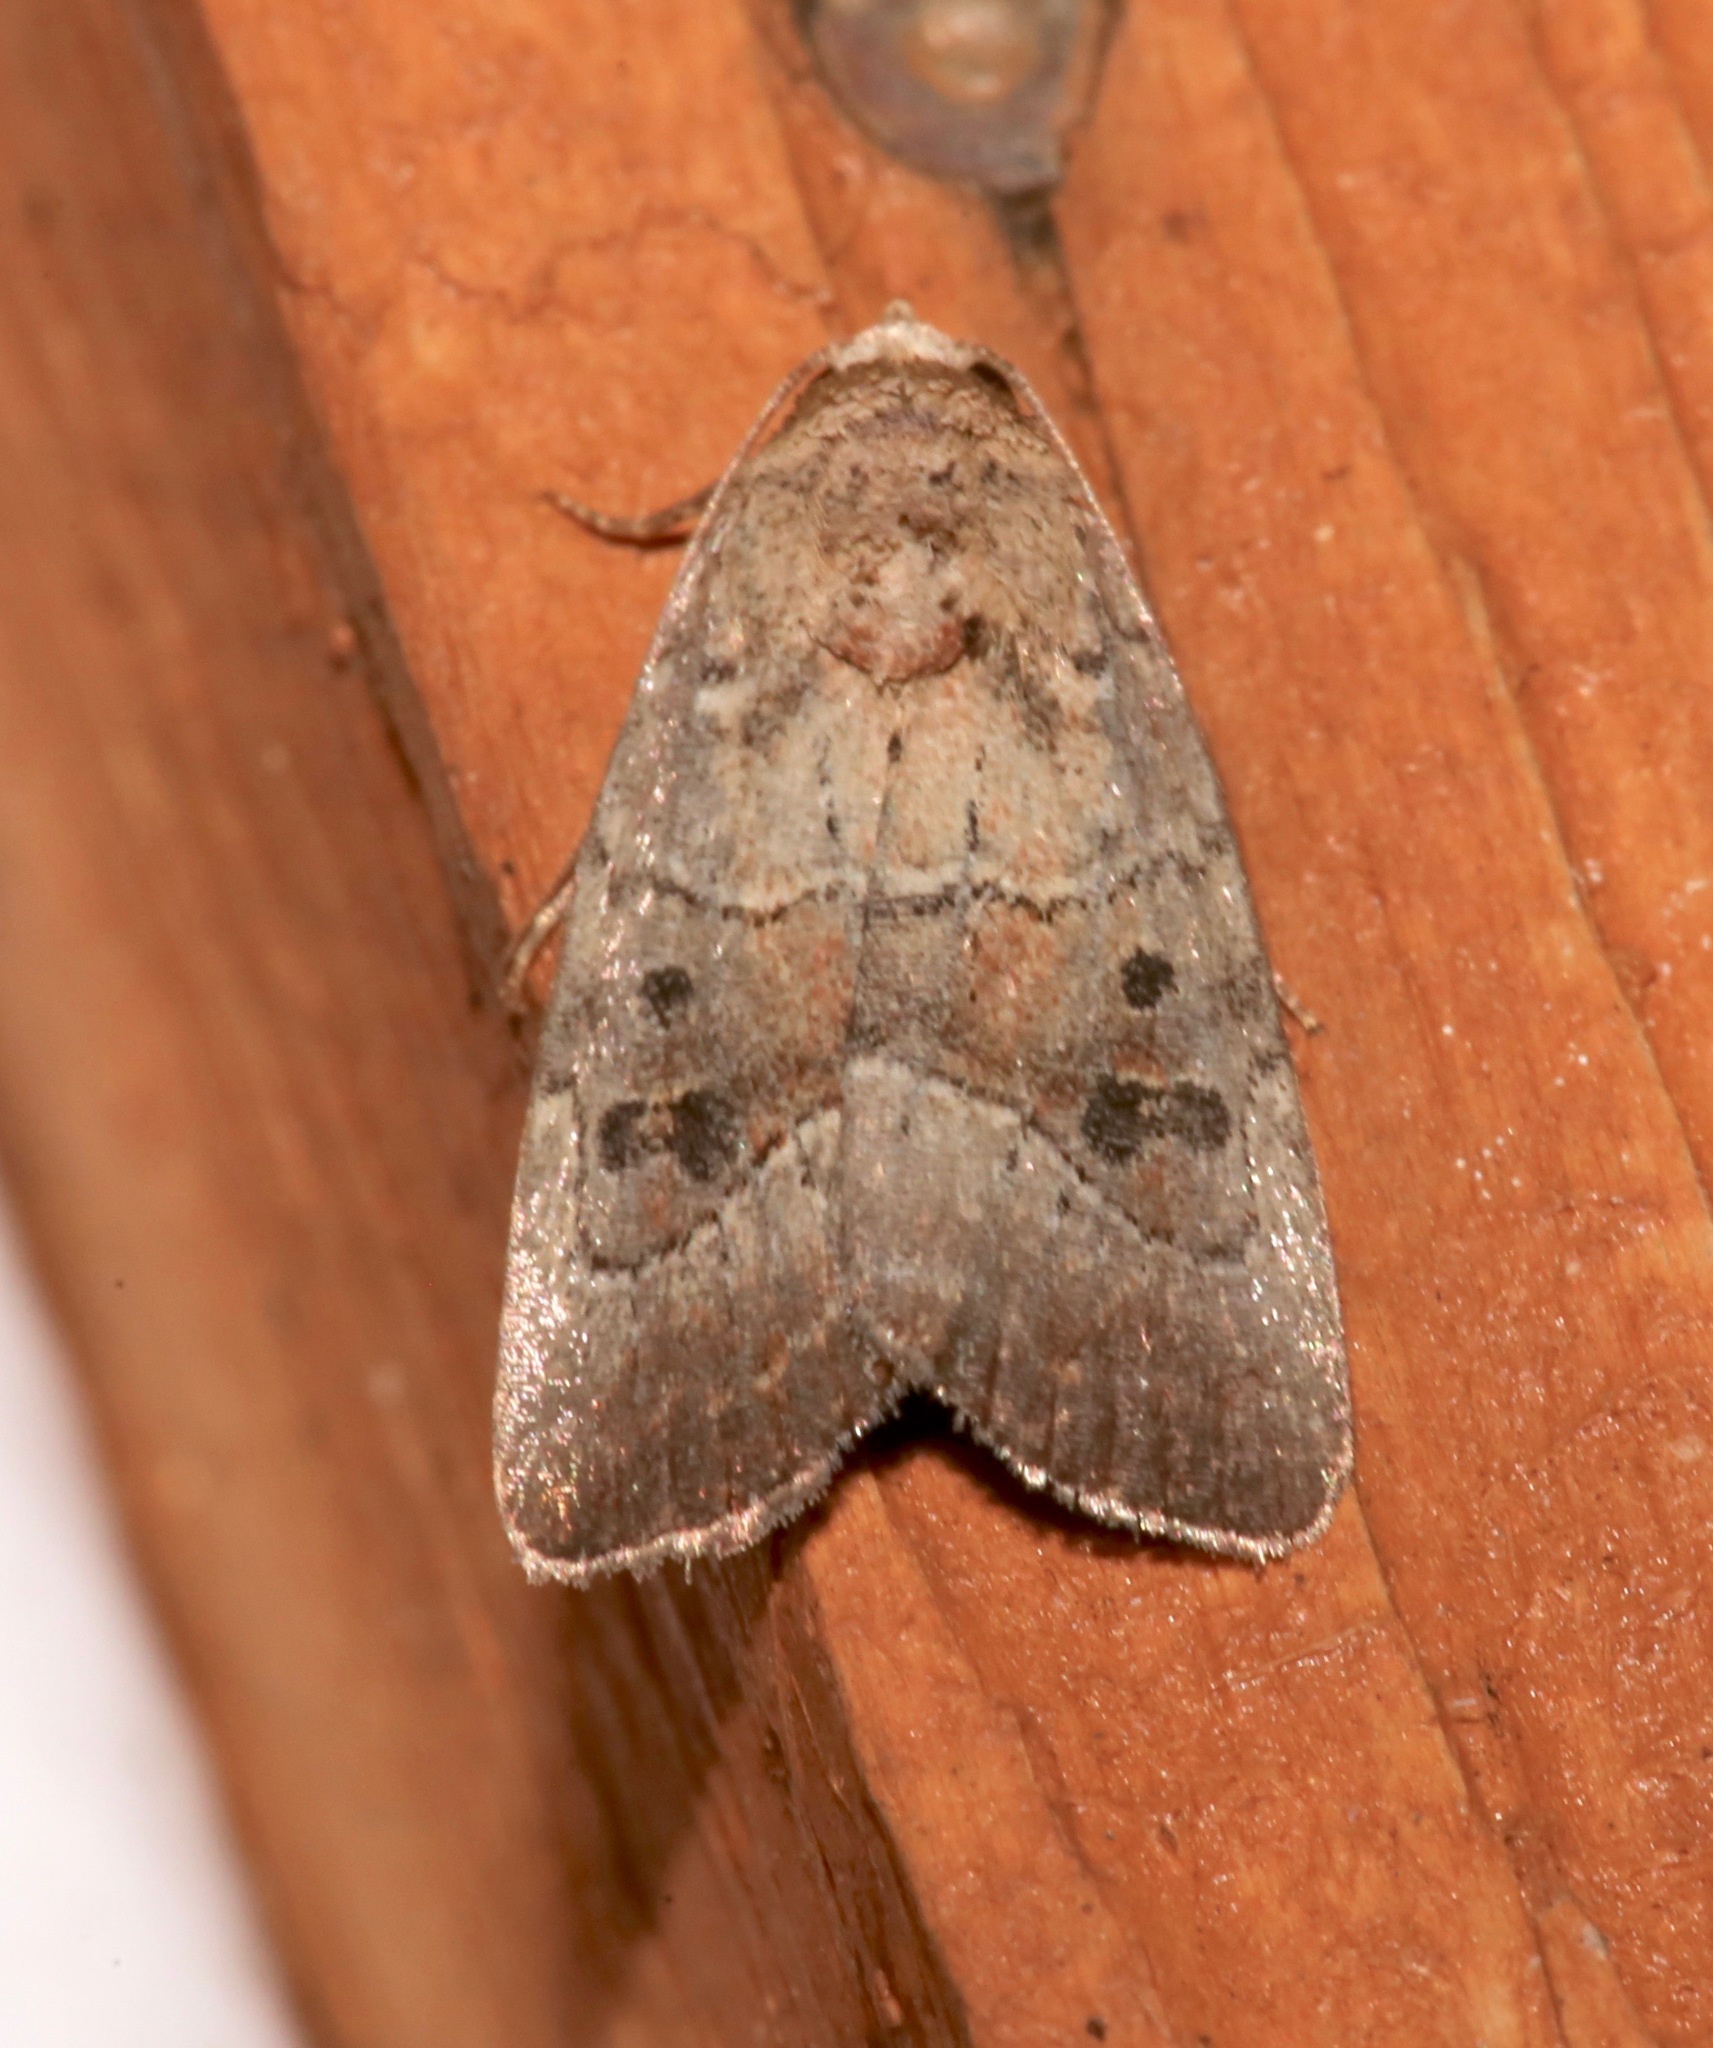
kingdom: Animalia
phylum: Arthropoda
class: Insecta
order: Lepidoptera
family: Noctuidae
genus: Elaphria
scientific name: Elaphria fuscimacula
